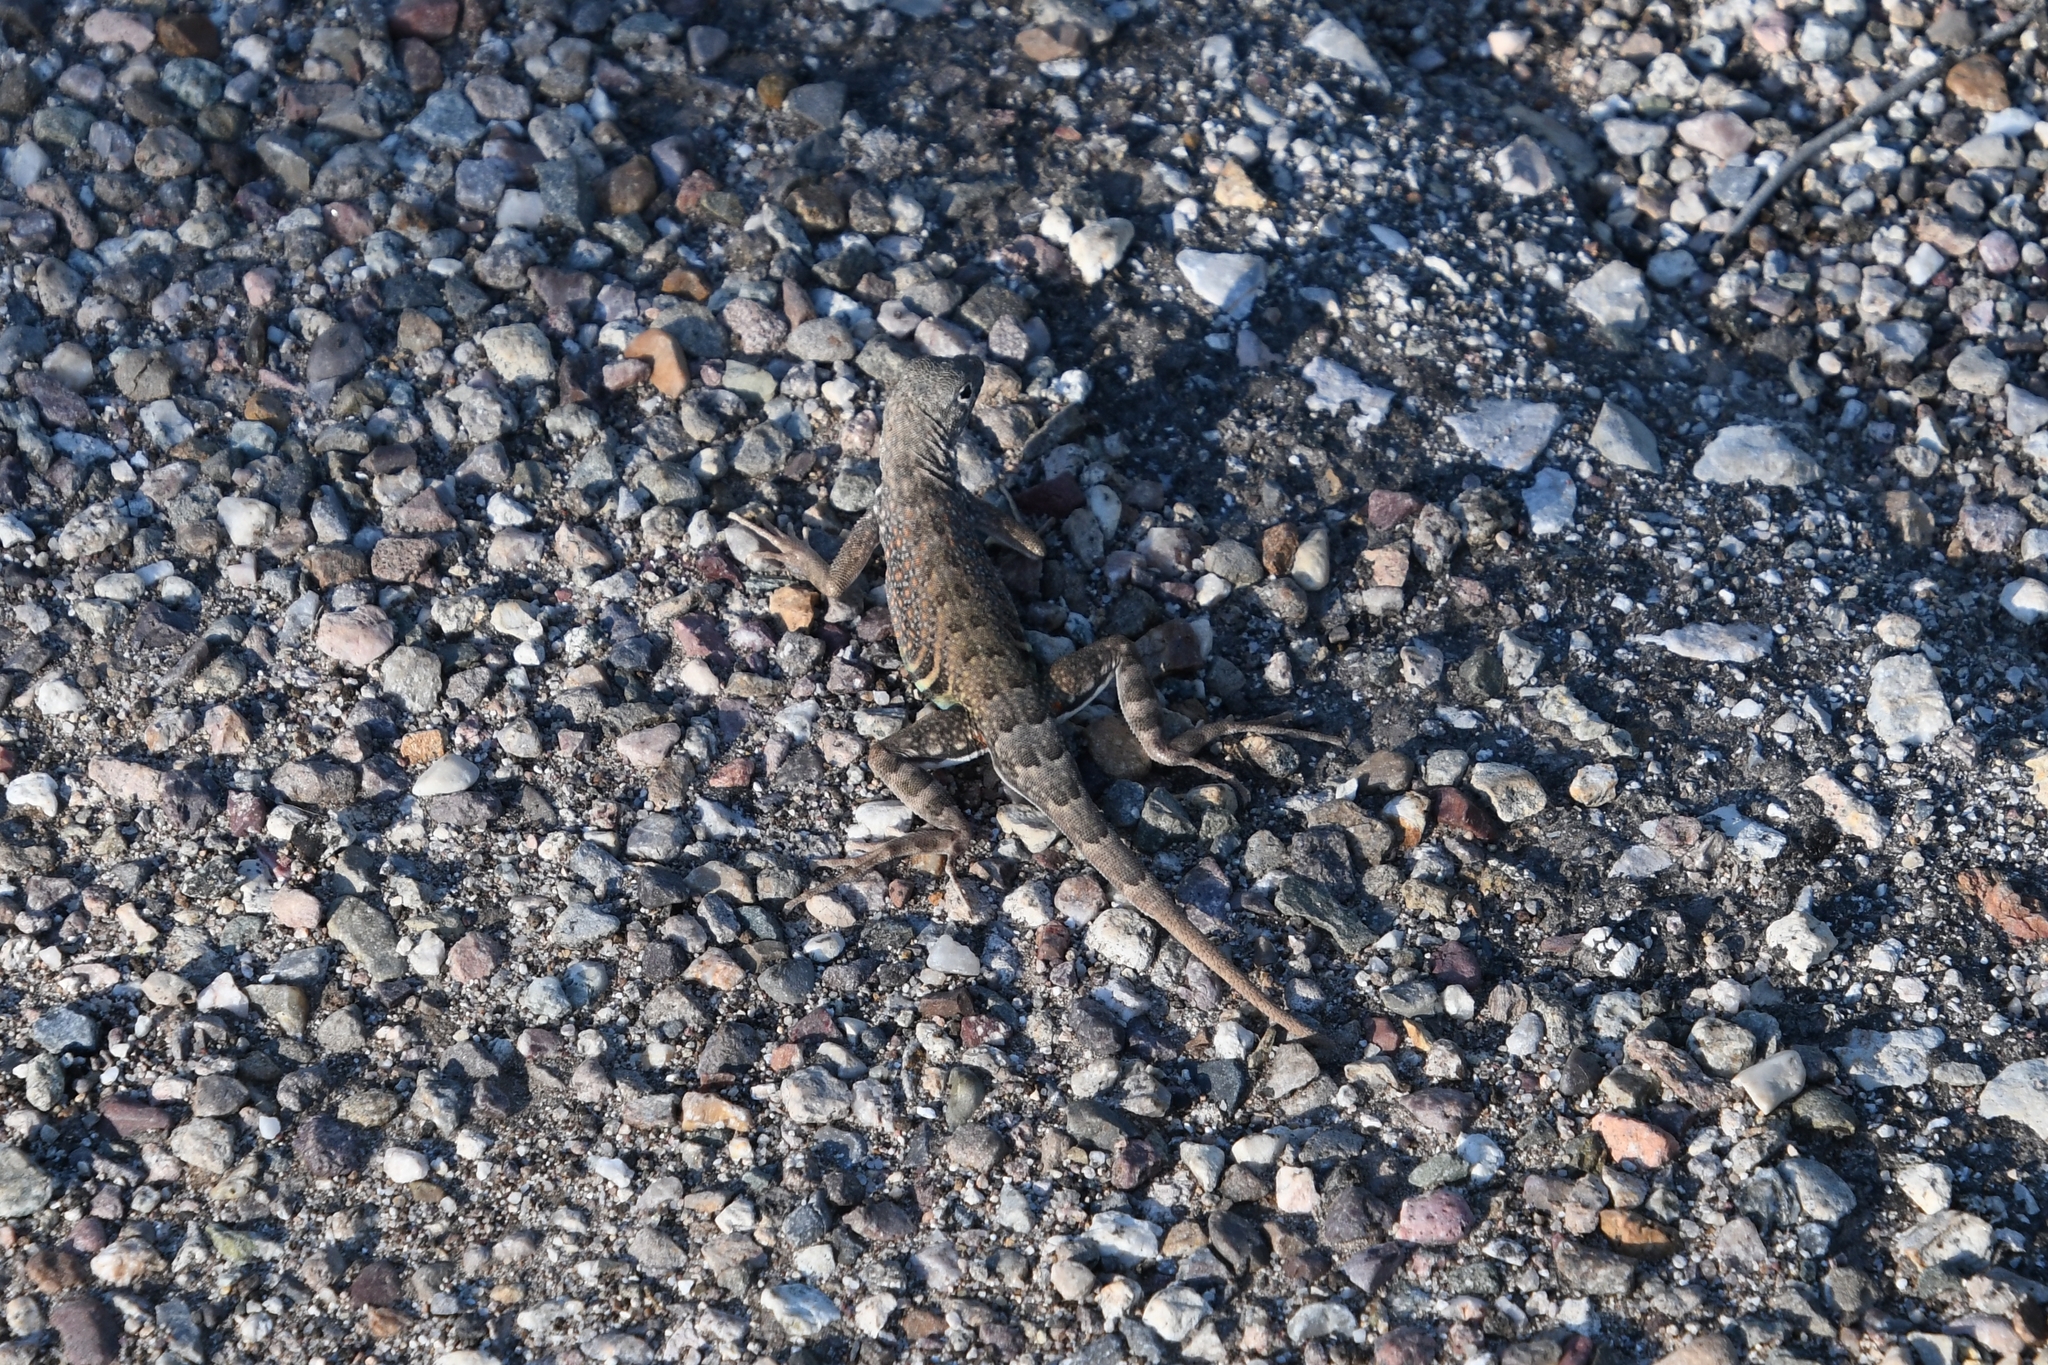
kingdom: Animalia
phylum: Chordata
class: Squamata
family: Phrynosomatidae
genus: Cophosaurus
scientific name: Cophosaurus texanus
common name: Greater earless lizard
